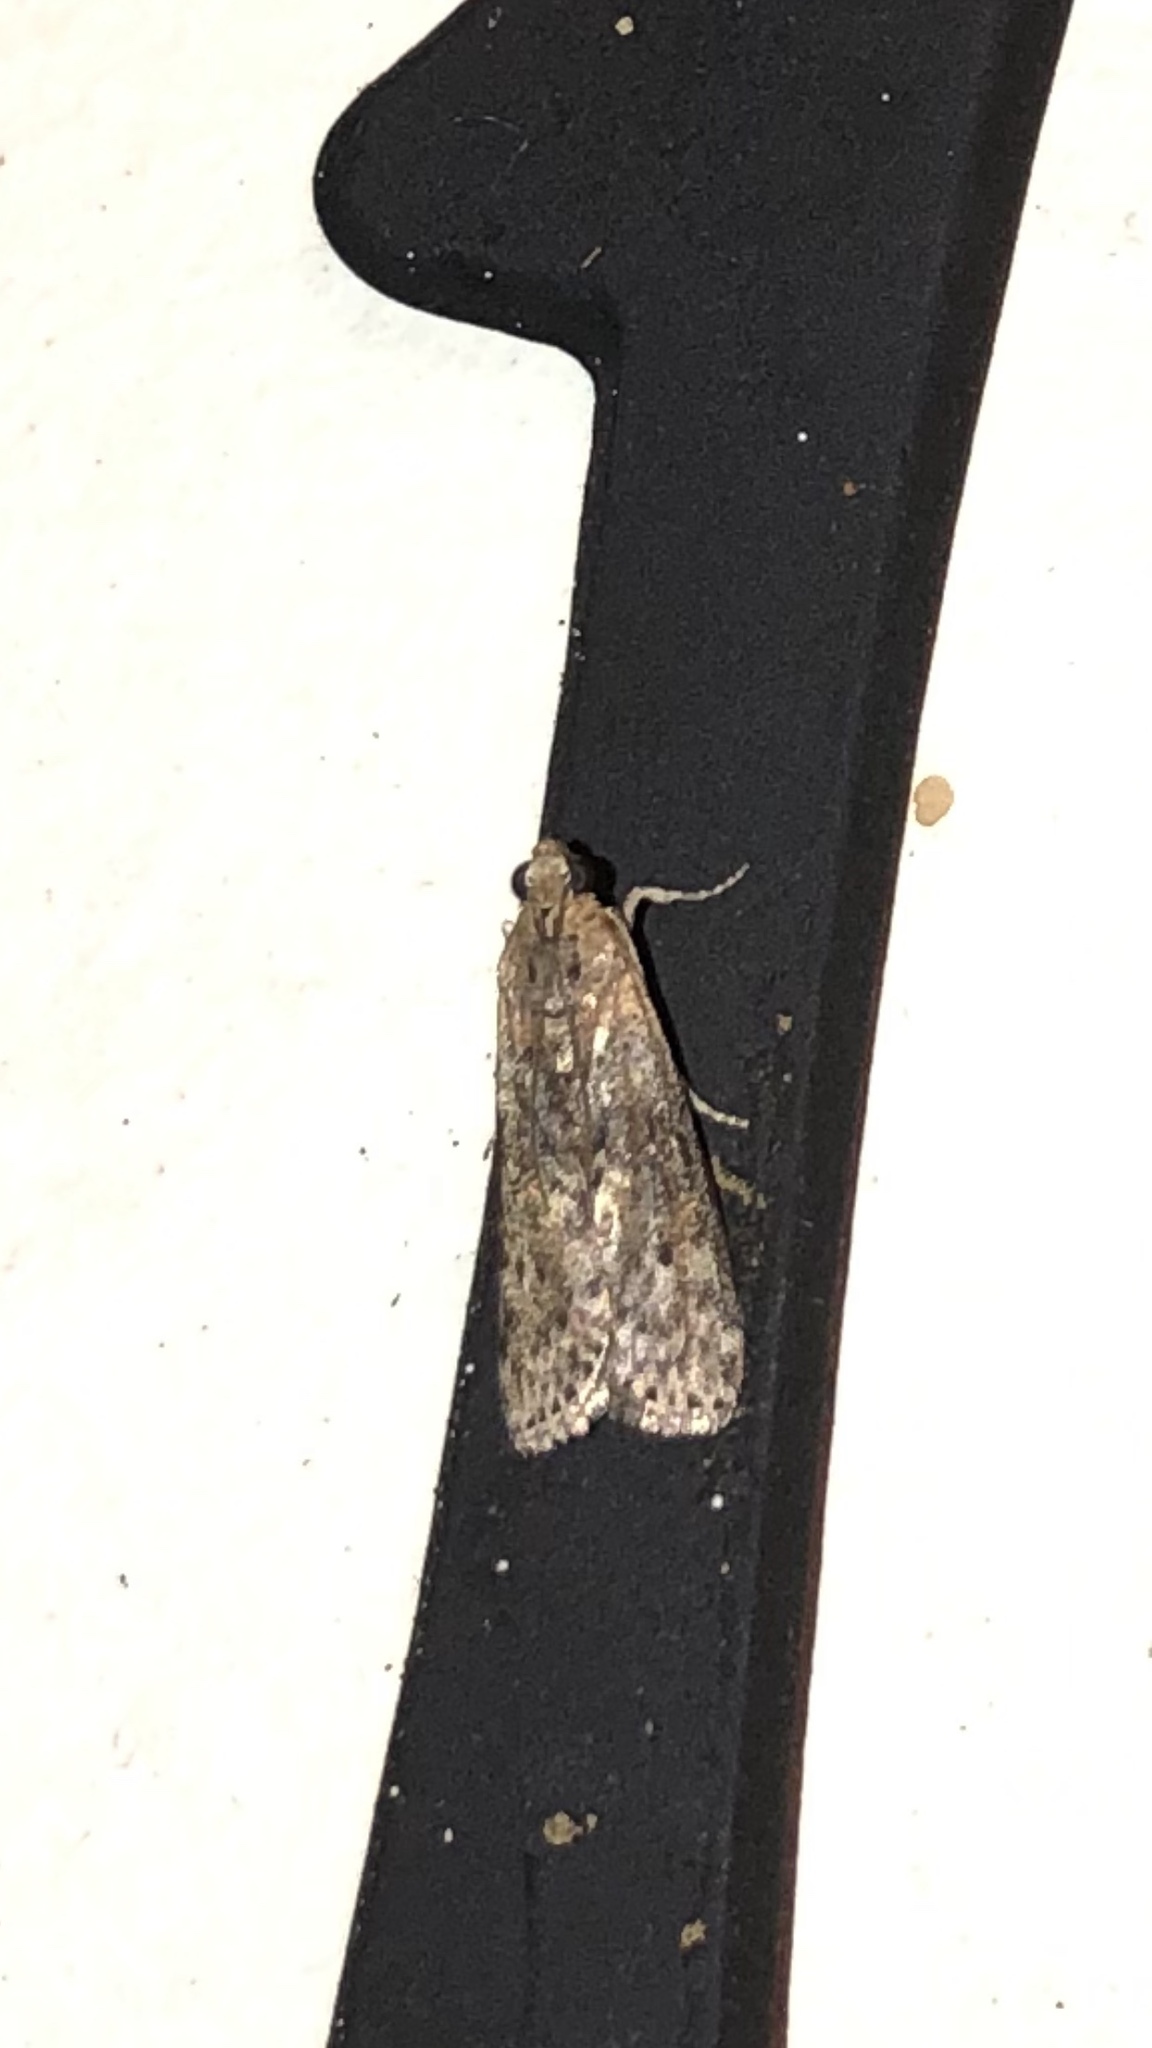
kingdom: Animalia
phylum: Arthropoda
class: Insecta
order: Lepidoptera
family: Pyralidae
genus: Sciota
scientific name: Sciota celtidella
